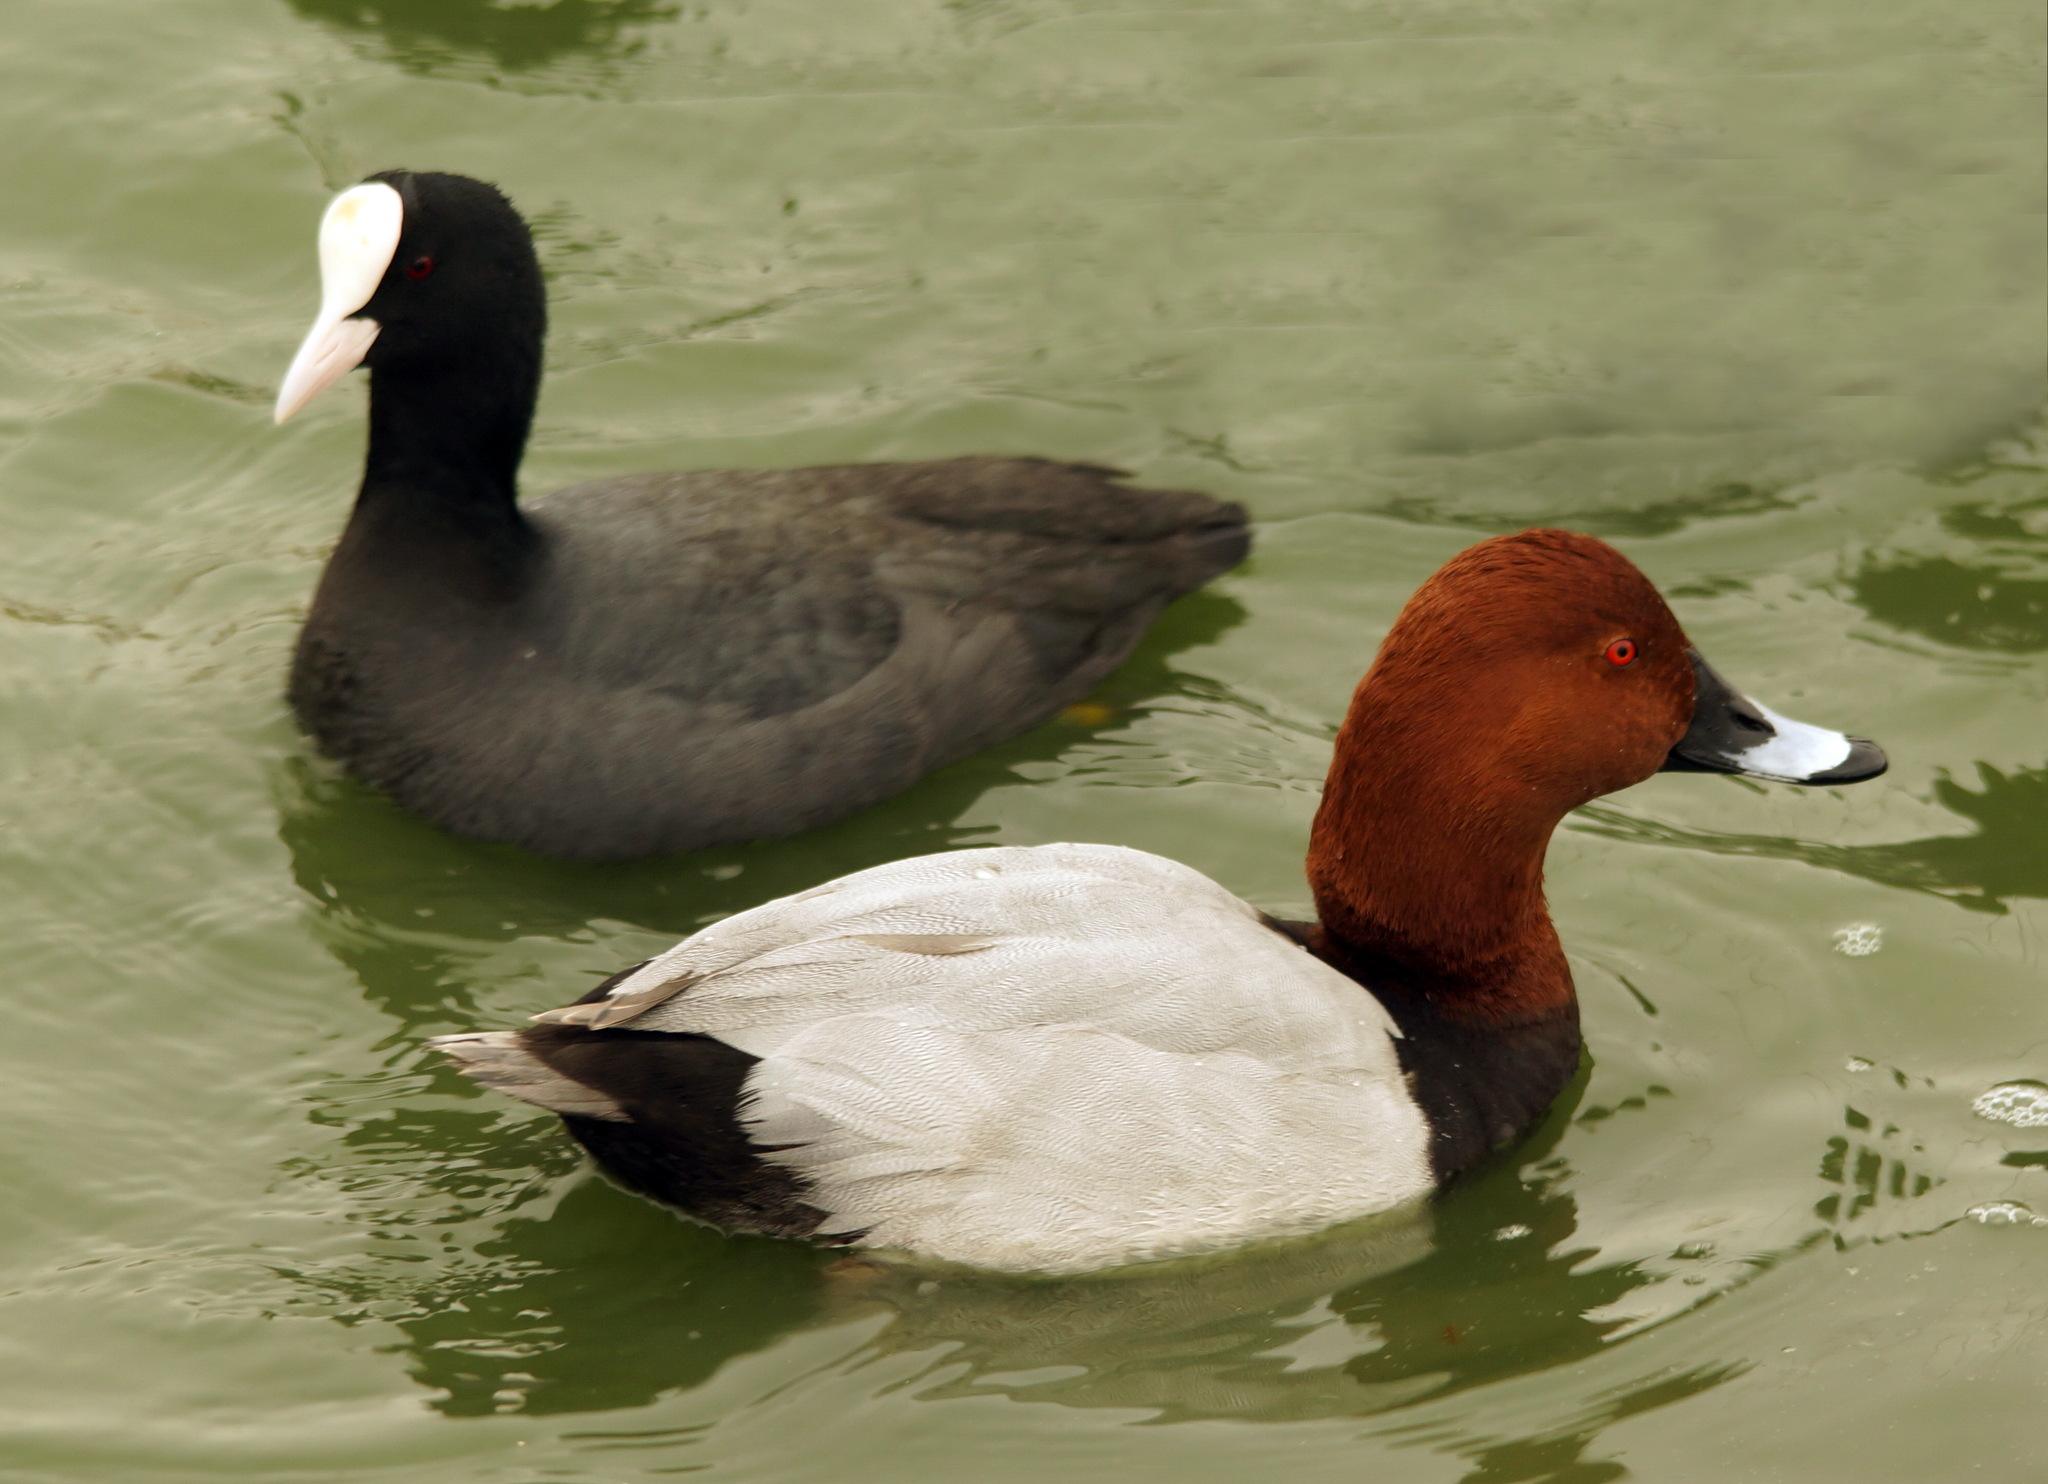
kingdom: Animalia
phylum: Chordata
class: Aves
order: Gruiformes
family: Rallidae
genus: Fulica
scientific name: Fulica atra
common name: Eurasian coot
